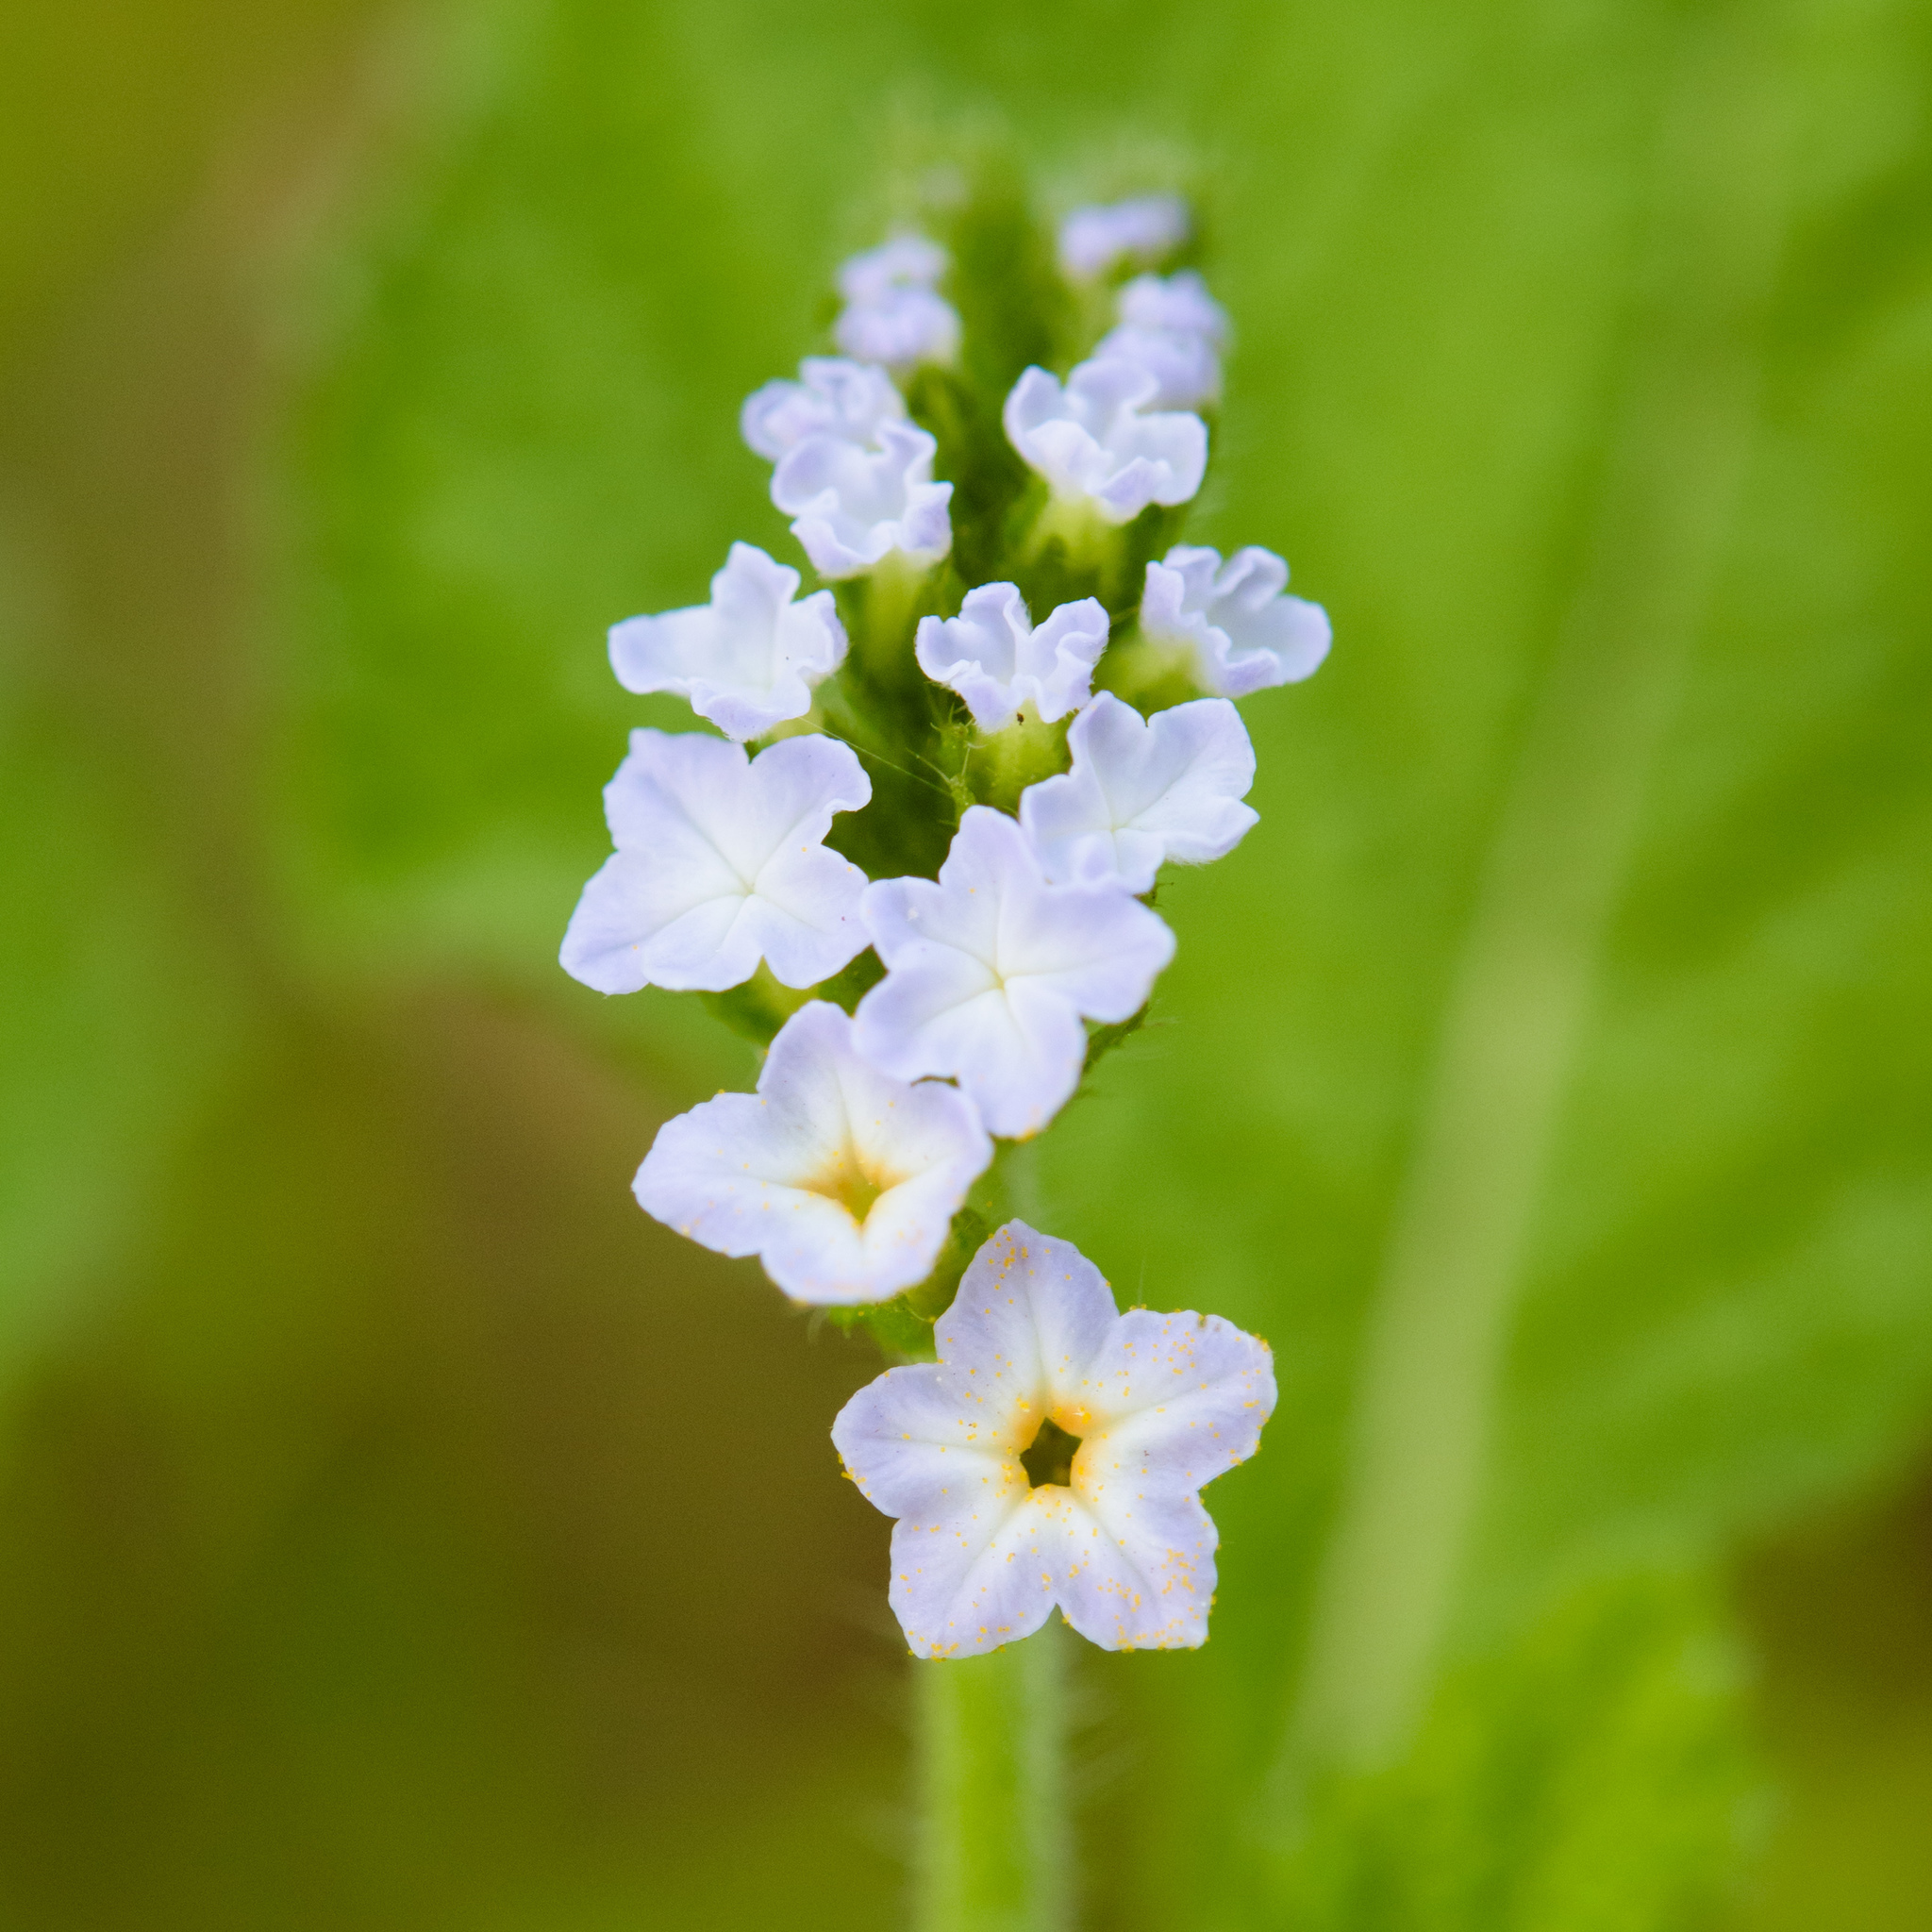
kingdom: Plantae
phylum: Tracheophyta
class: Magnoliopsida
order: Boraginales
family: Heliotropiaceae
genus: Heliotropium
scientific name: Heliotropium indicum
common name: Indian heliotrope
